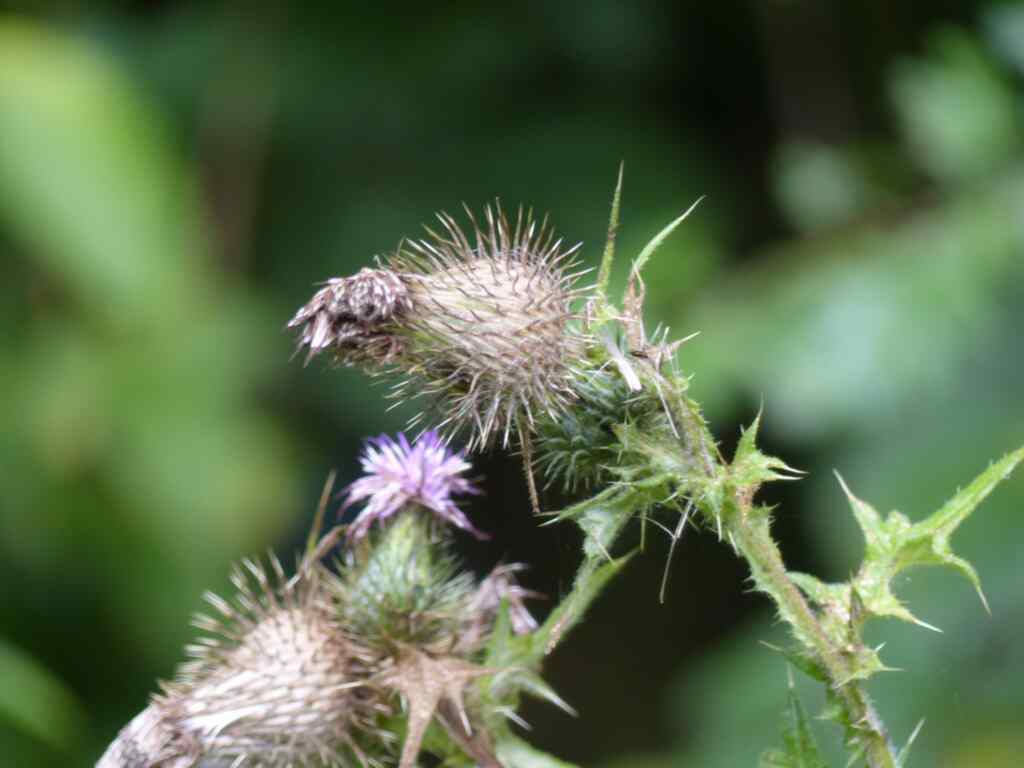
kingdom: Plantae
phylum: Tracheophyta
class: Magnoliopsida
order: Asterales
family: Asteraceae
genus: Cirsium
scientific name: Cirsium vulgare
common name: Bull thistle
